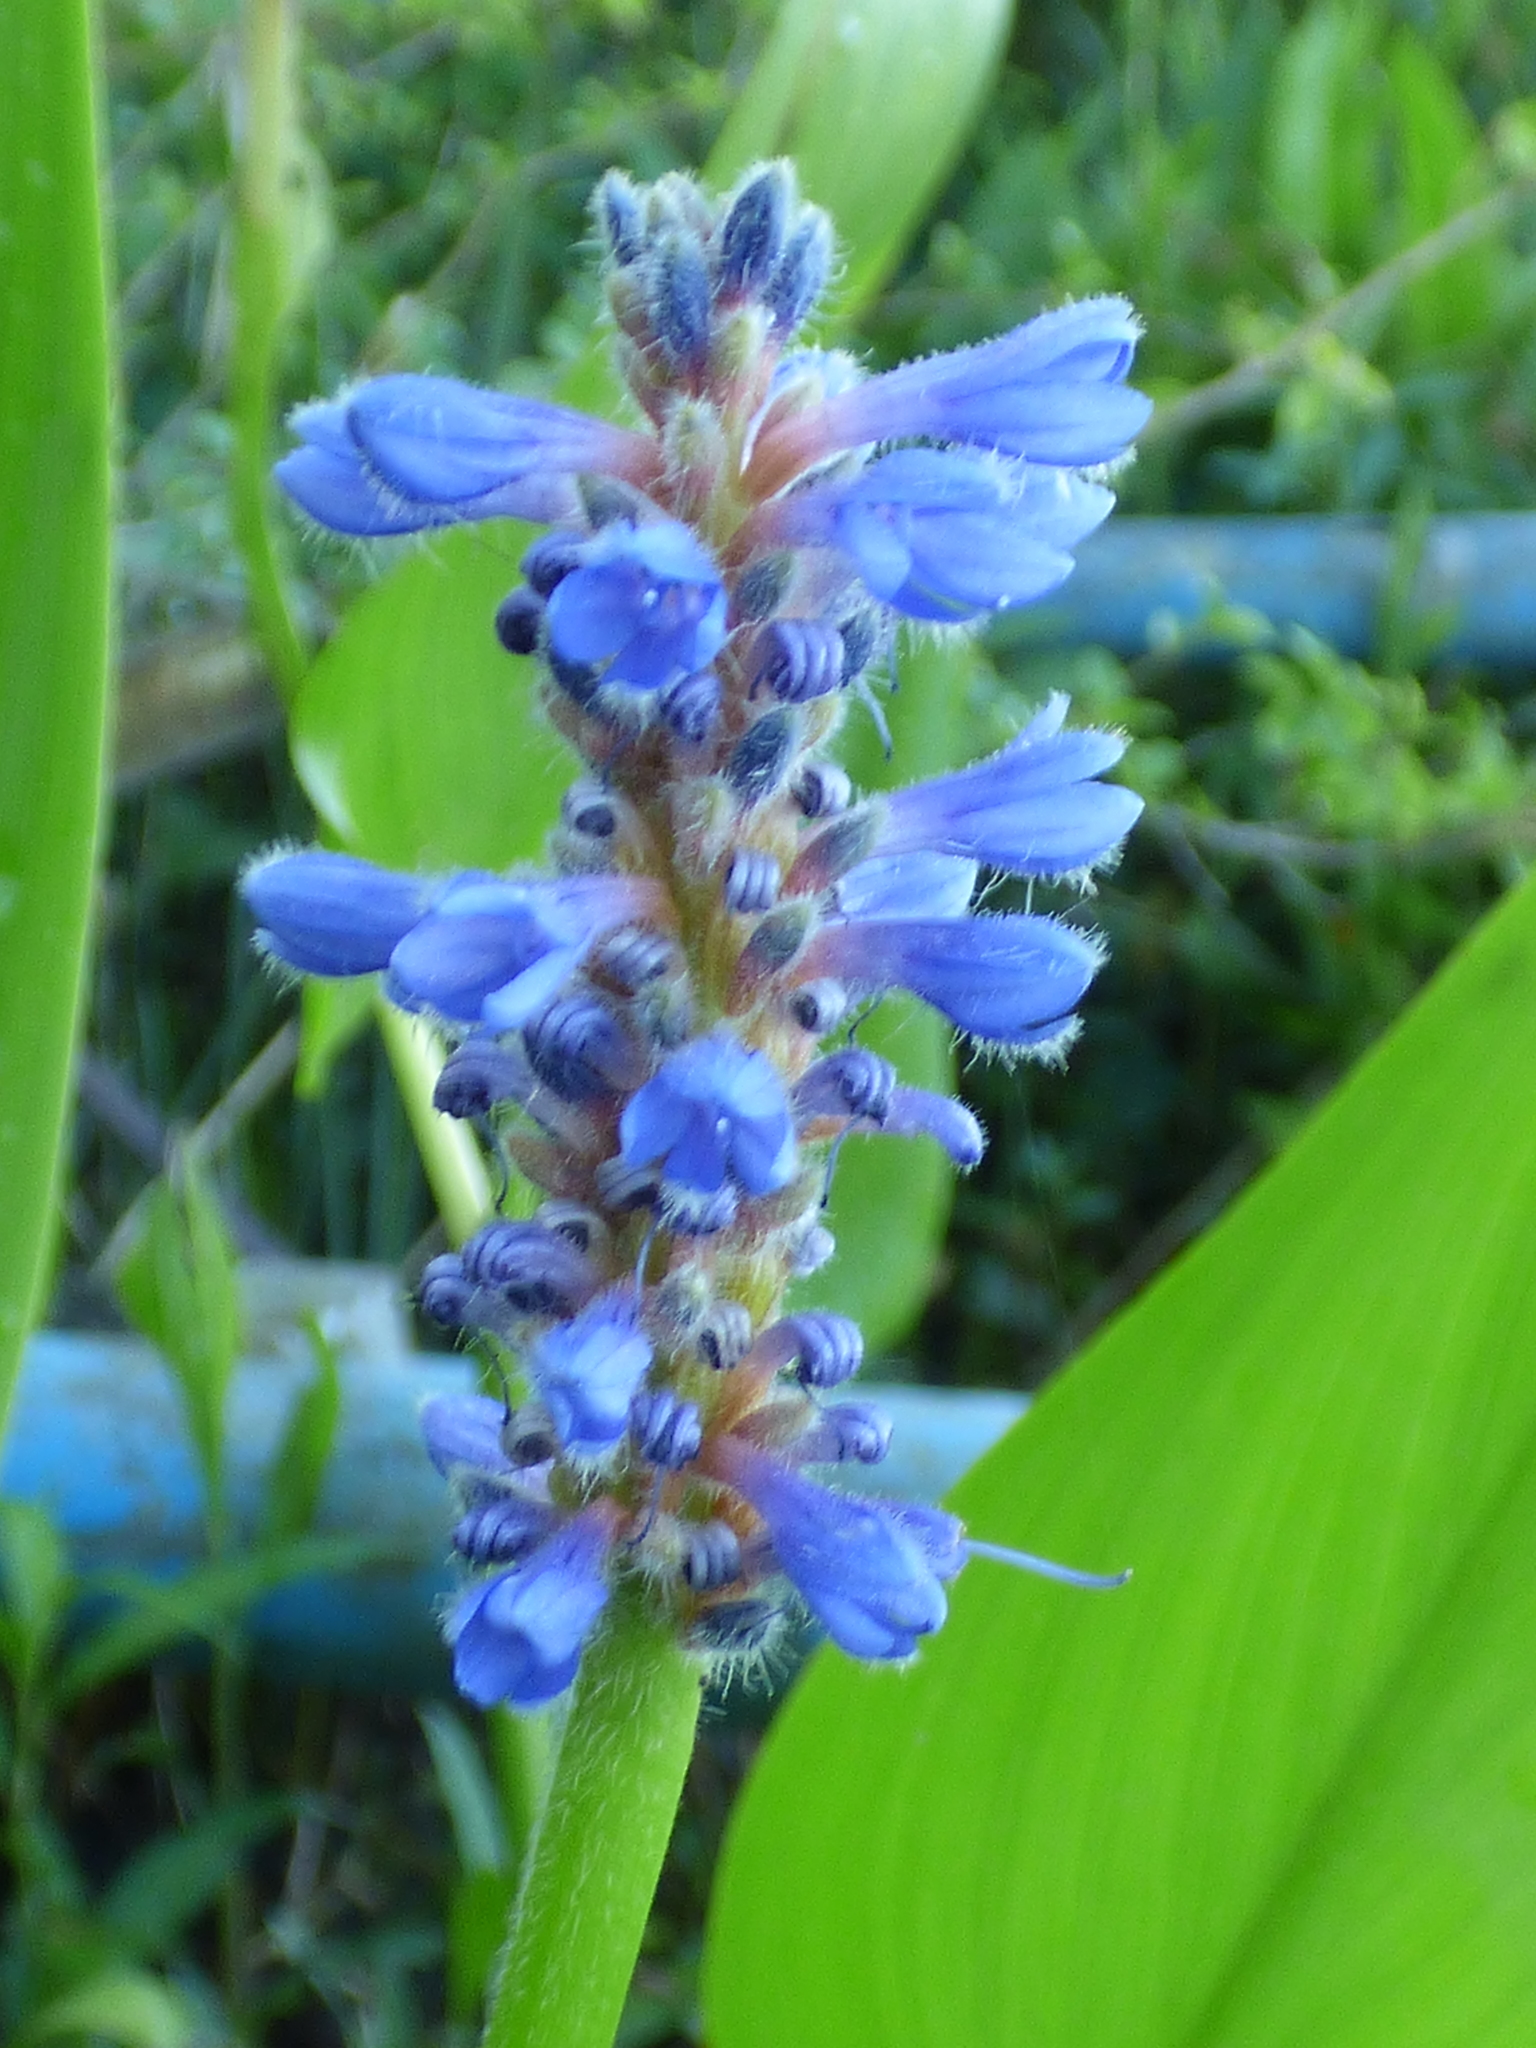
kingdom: Plantae
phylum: Tracheophyta
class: Liliopsida
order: Commelinales
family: Pontederiaceae
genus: Pontederia
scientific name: Pontederia cordata
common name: Pickerelweed
